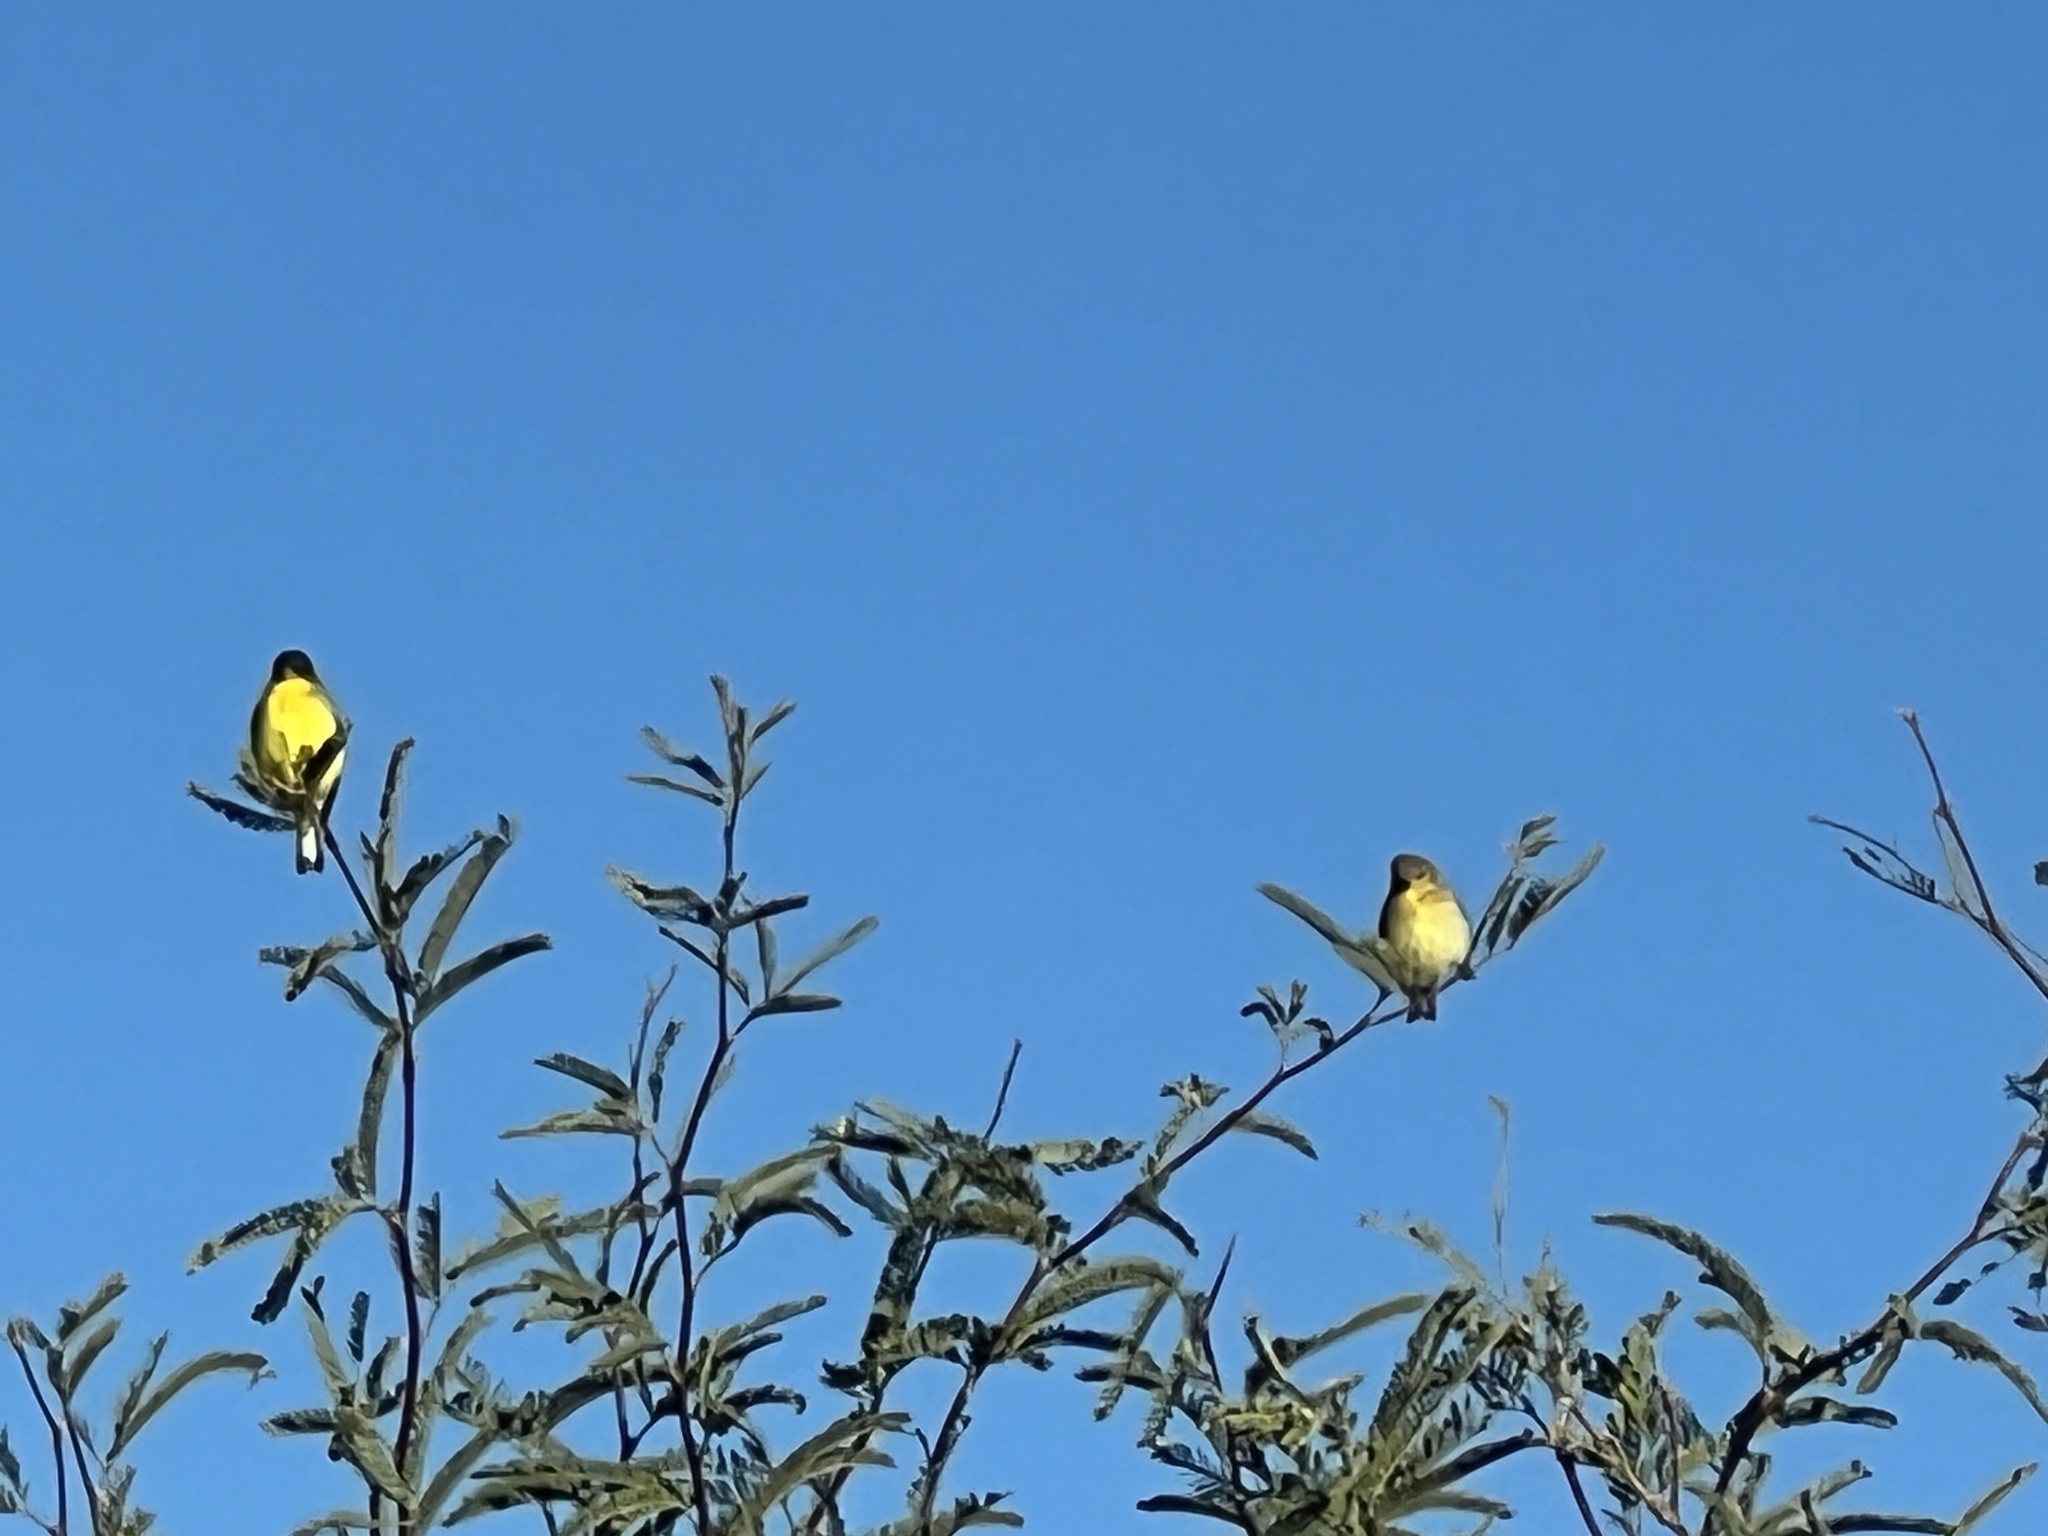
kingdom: Animalia
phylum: Chordata
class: Aves
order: Passeriformes
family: Fringillidae
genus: Spinus
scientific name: Spinus psaltria
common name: Lesser goldfinch
